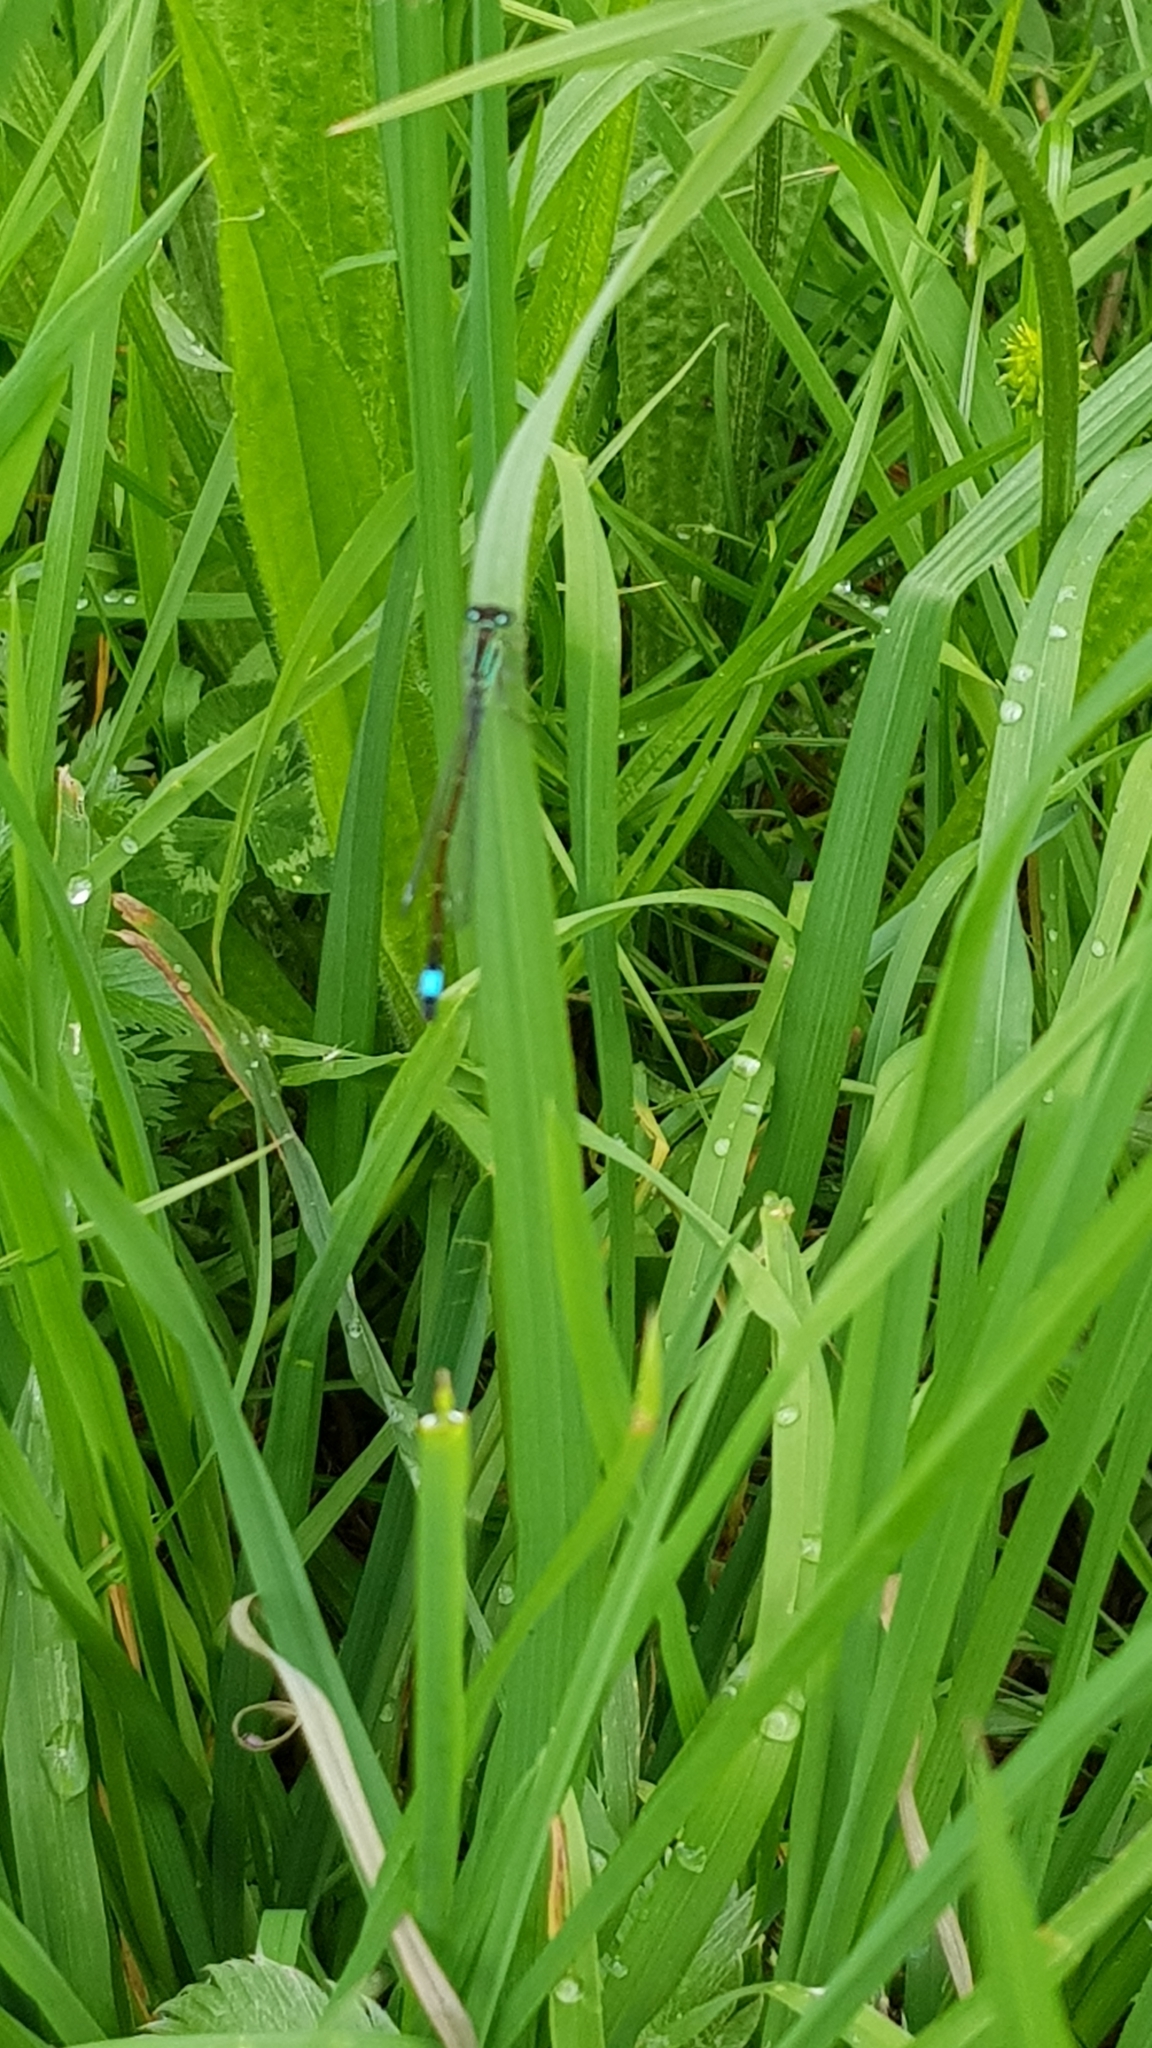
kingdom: Animalia
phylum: Arthropoda
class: Insecta
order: Odonata
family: Coenagrionidae
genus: Ischnura
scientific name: Ischnura elegans
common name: Blue-tailed damselfly
